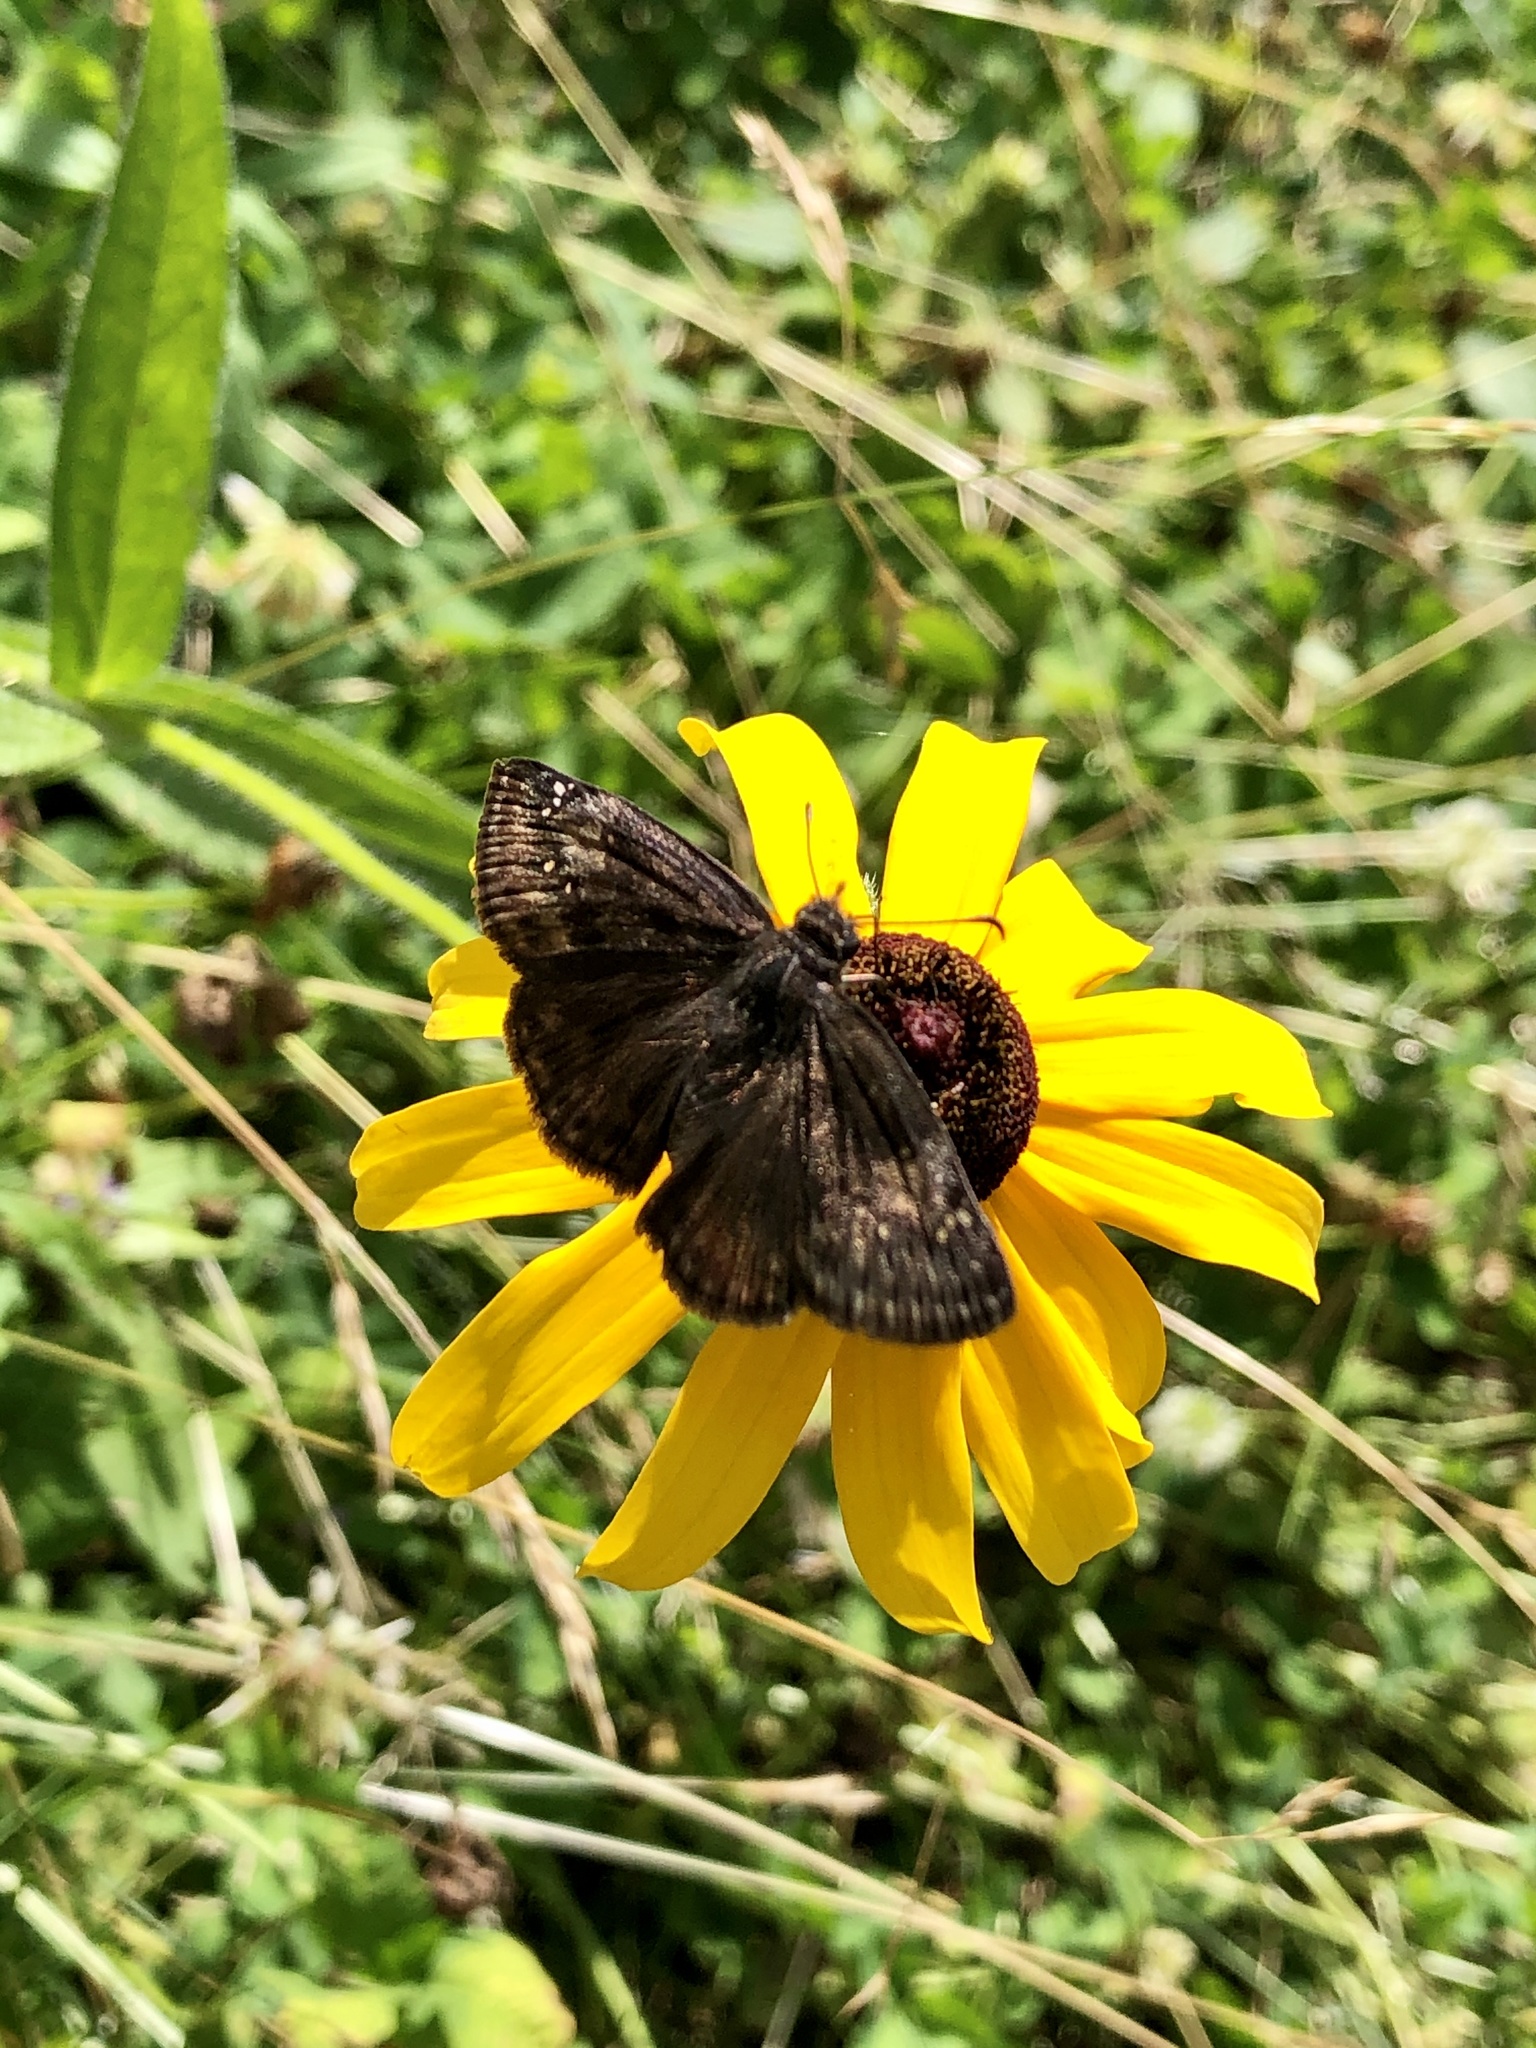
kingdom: Animalia
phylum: Arthropoda
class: Insecta
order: Lepidoptera
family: Hesperiidae
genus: Erynnis
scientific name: Erynnis baptisiae
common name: Wild indigo duskywing
